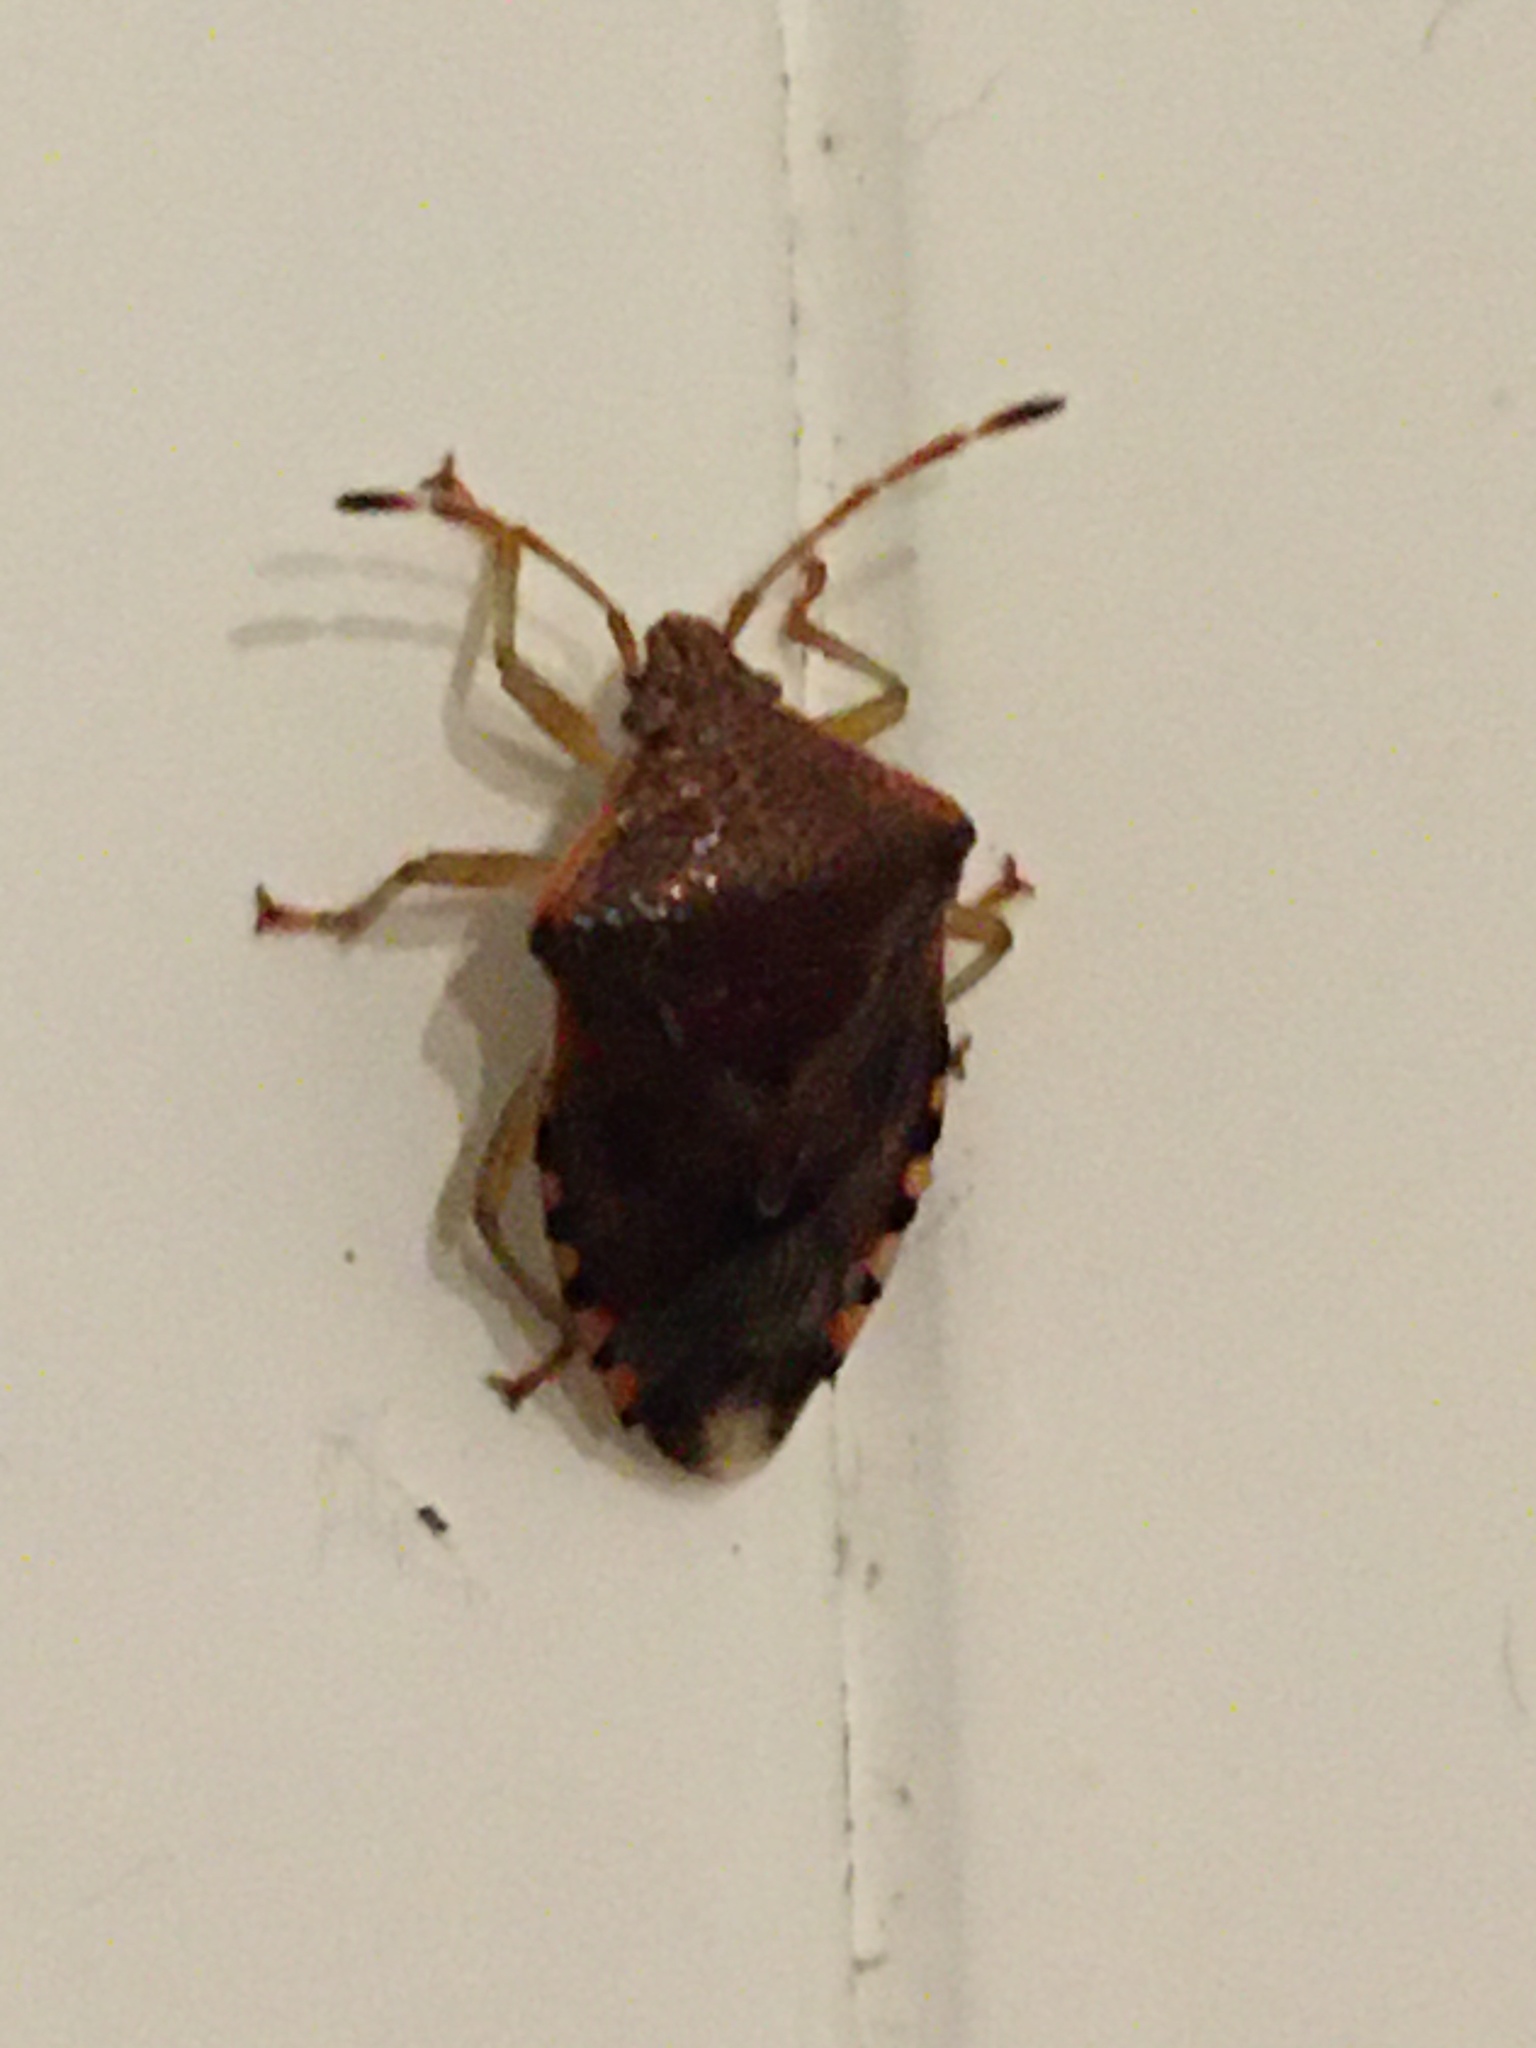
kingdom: Animalia
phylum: Arthropoda
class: Insecta
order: Hemiptera
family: Acanthosomatidae
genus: Elasmucha
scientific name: Elasmucha grisea
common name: Parent bug
